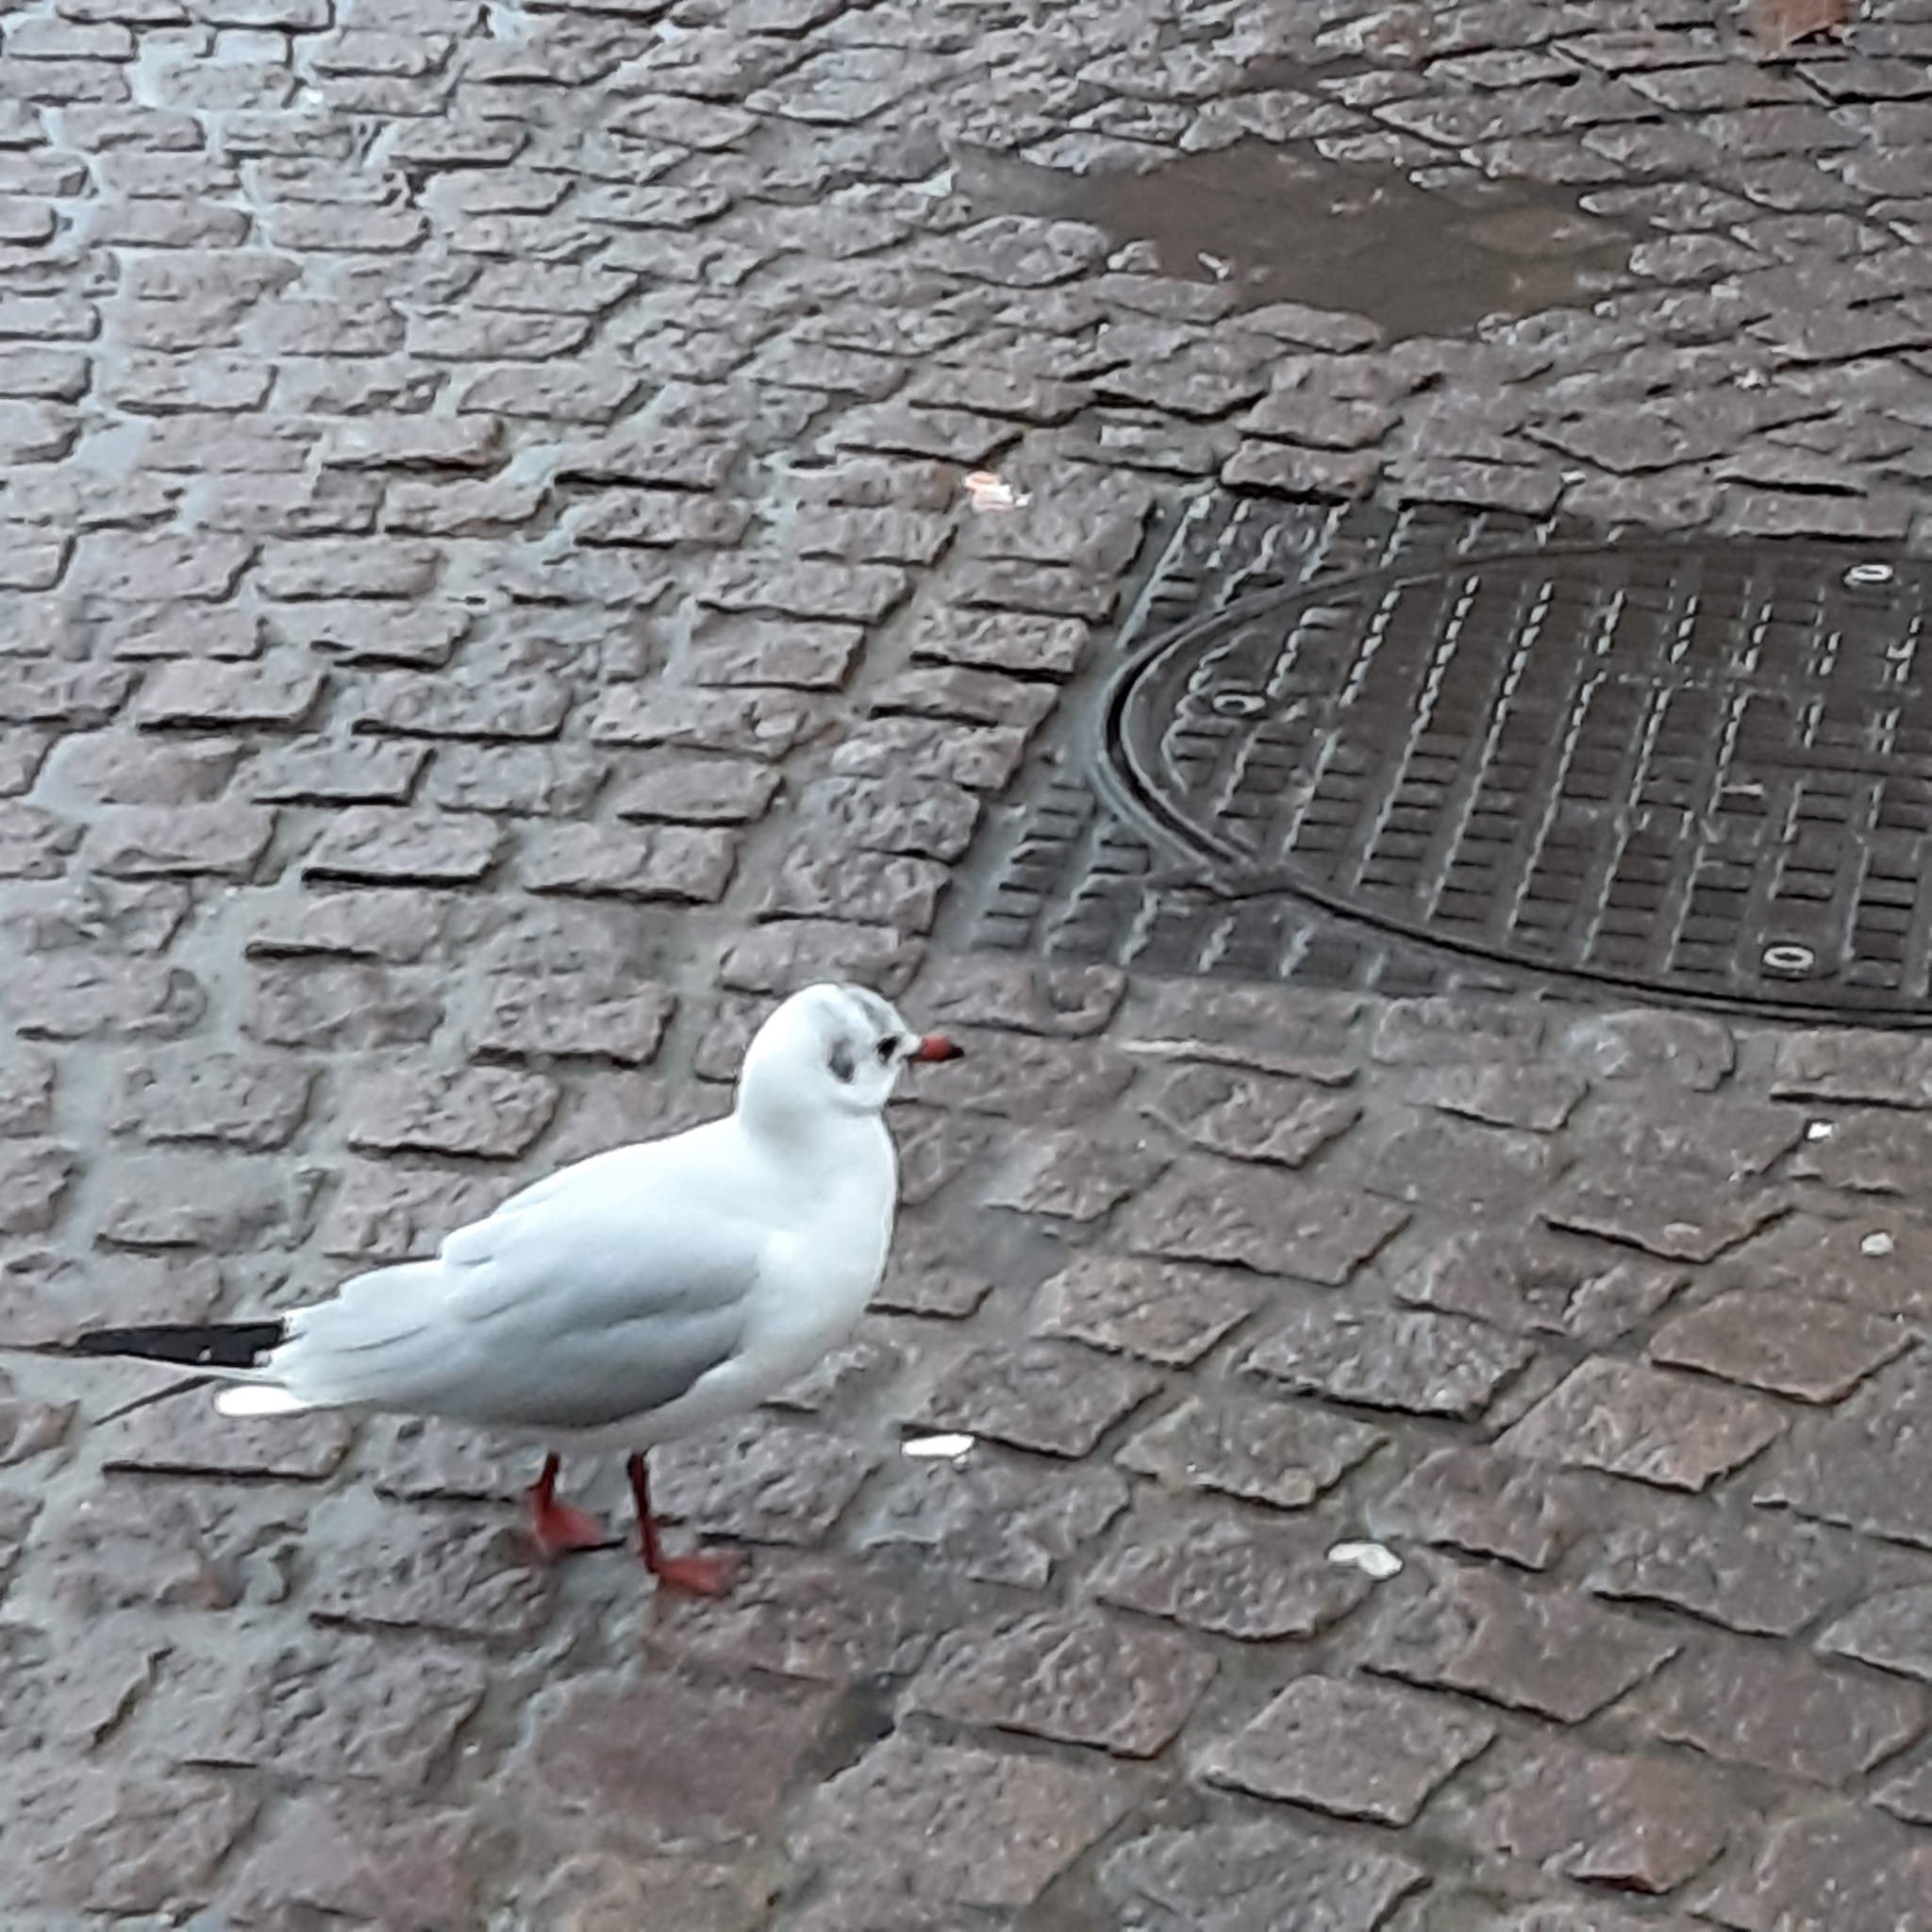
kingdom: Animalia
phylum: Chordata
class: Aves
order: Charadriiformes
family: Laridae
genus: Chroicocephalus
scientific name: Chroicocephalus ridibundus
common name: Black-headed gull
